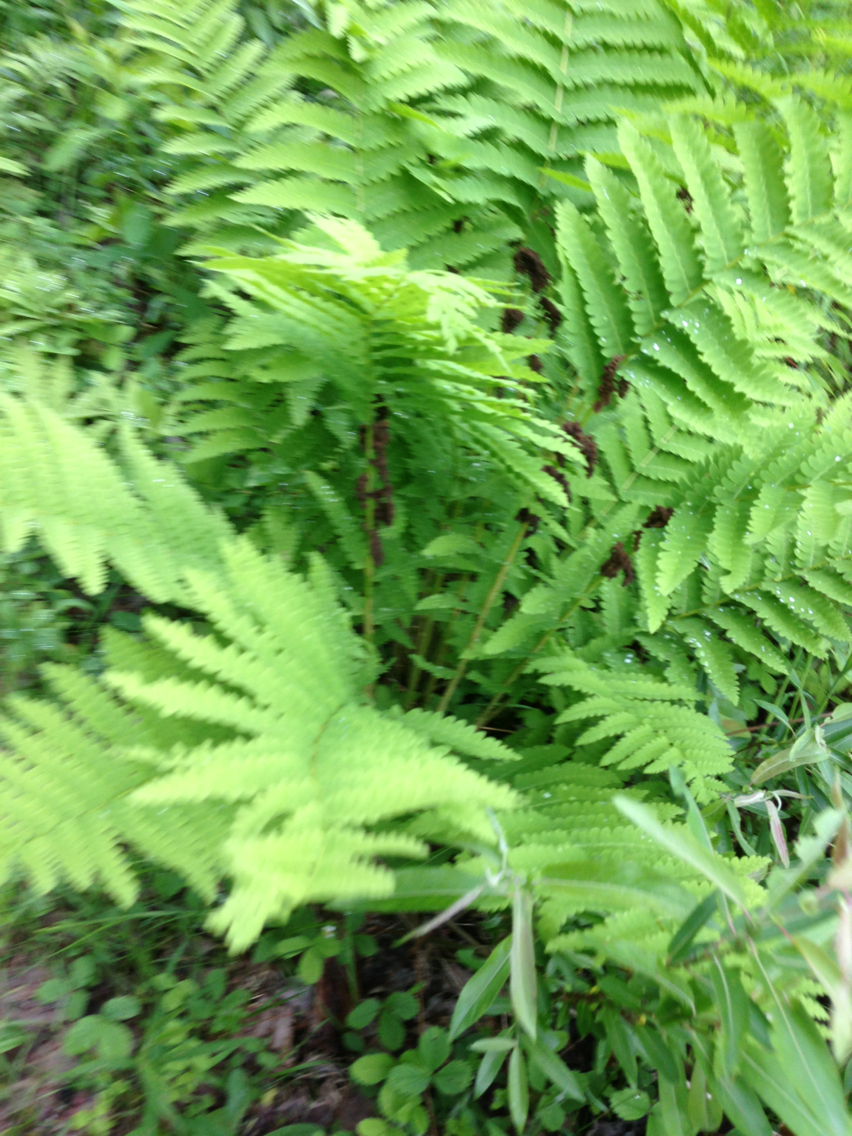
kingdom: Plantae
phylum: Tracheophyta
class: Polypodiopsida
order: Osmundales
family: Osmundaceae
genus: Claytosmunda
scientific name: Claytosmunda claytoniana
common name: Clayton's fern
